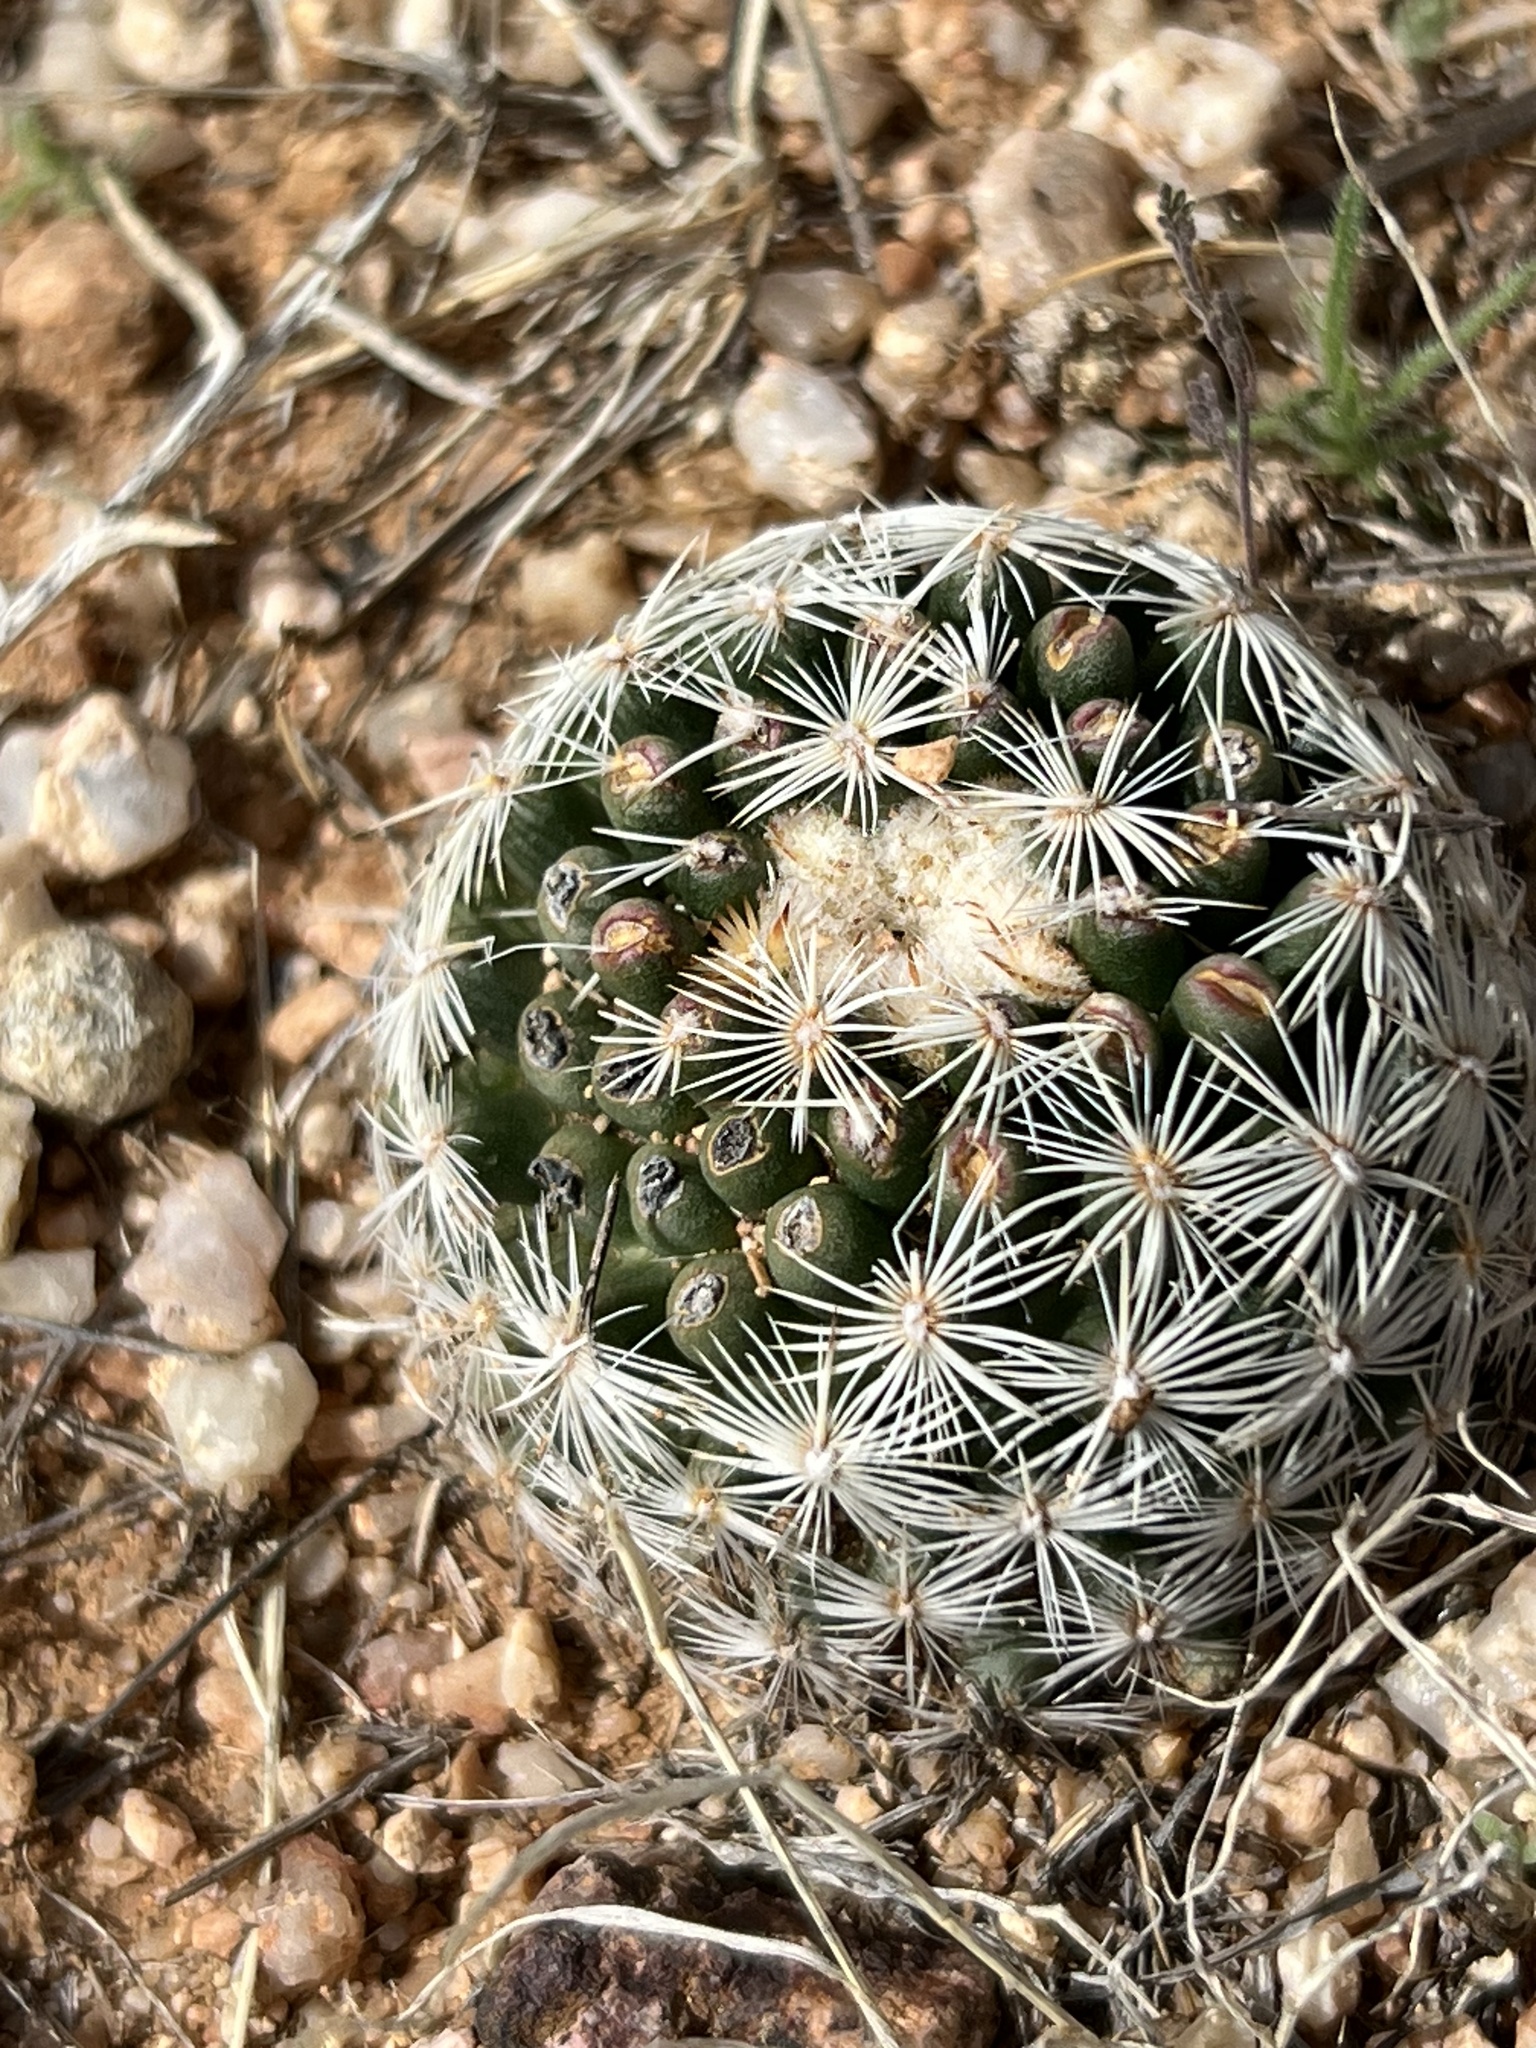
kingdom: Plantae
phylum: Tracheophyta
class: Magnoliopsida
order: Caryophyllales
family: Cactaceae
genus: Pelecyphora
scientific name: Pelecyphora vivipara
